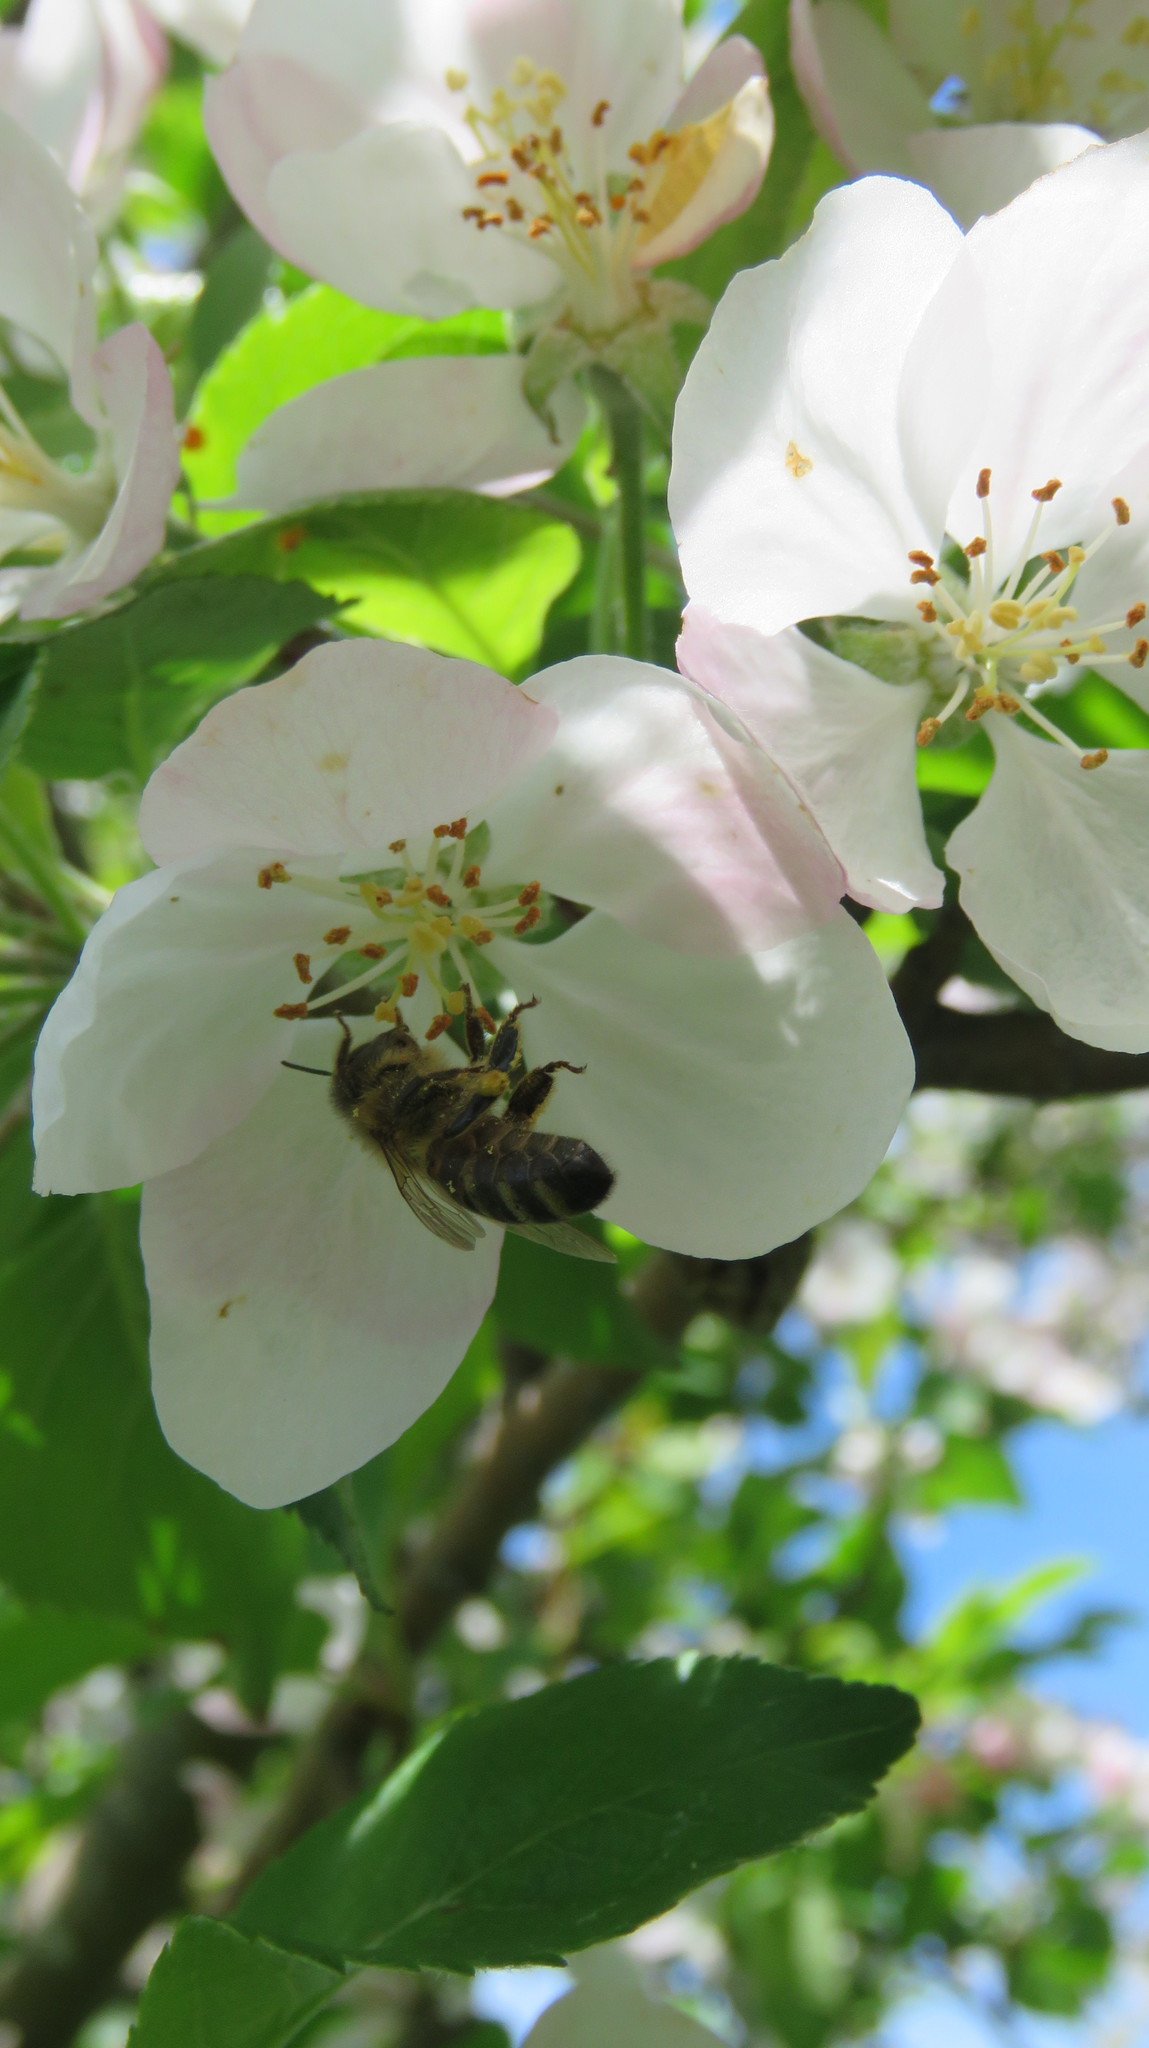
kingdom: Animalia
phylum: Arthropoda
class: Insecta
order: Hymenoptera
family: Apidae
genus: Apis
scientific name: Apis mellifera
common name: Honey bee
